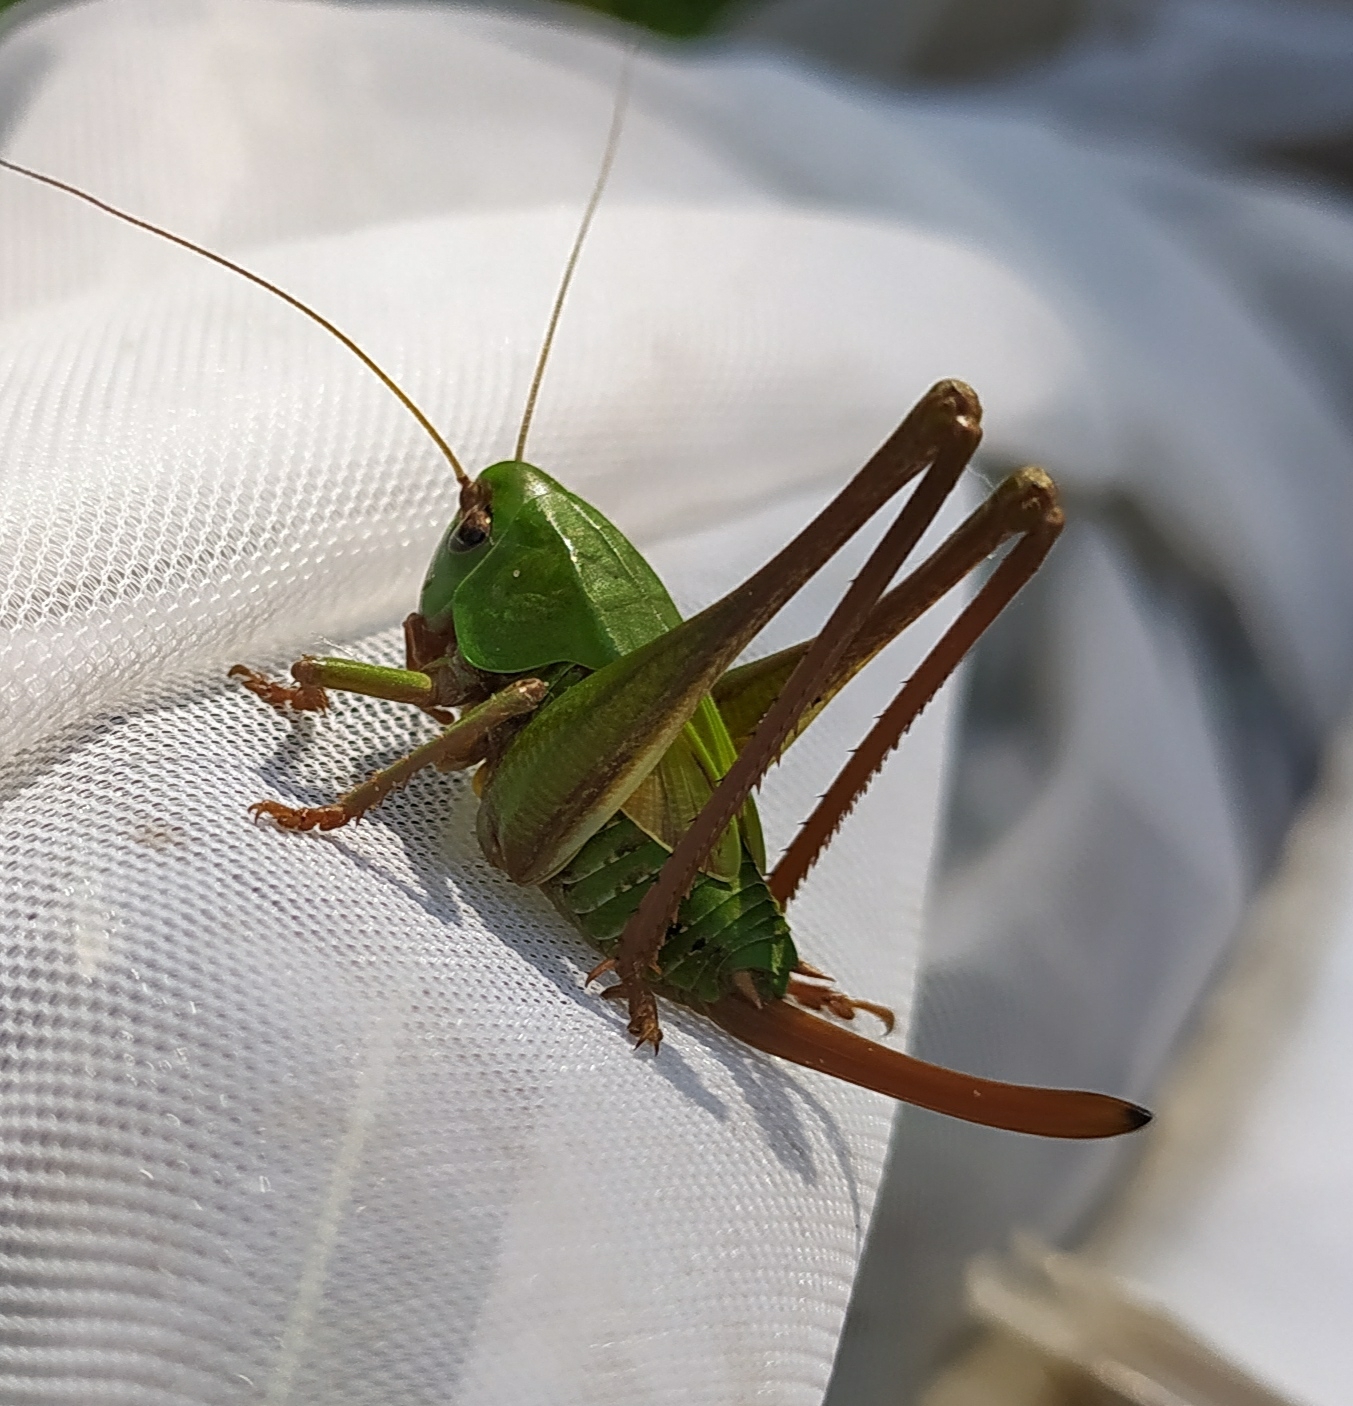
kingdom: Animalia
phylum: Arthropoda
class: Insecta
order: Orthoptera
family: Tettigoniidae
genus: Decticus
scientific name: Decticus verrucivorus
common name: Wart-biter
